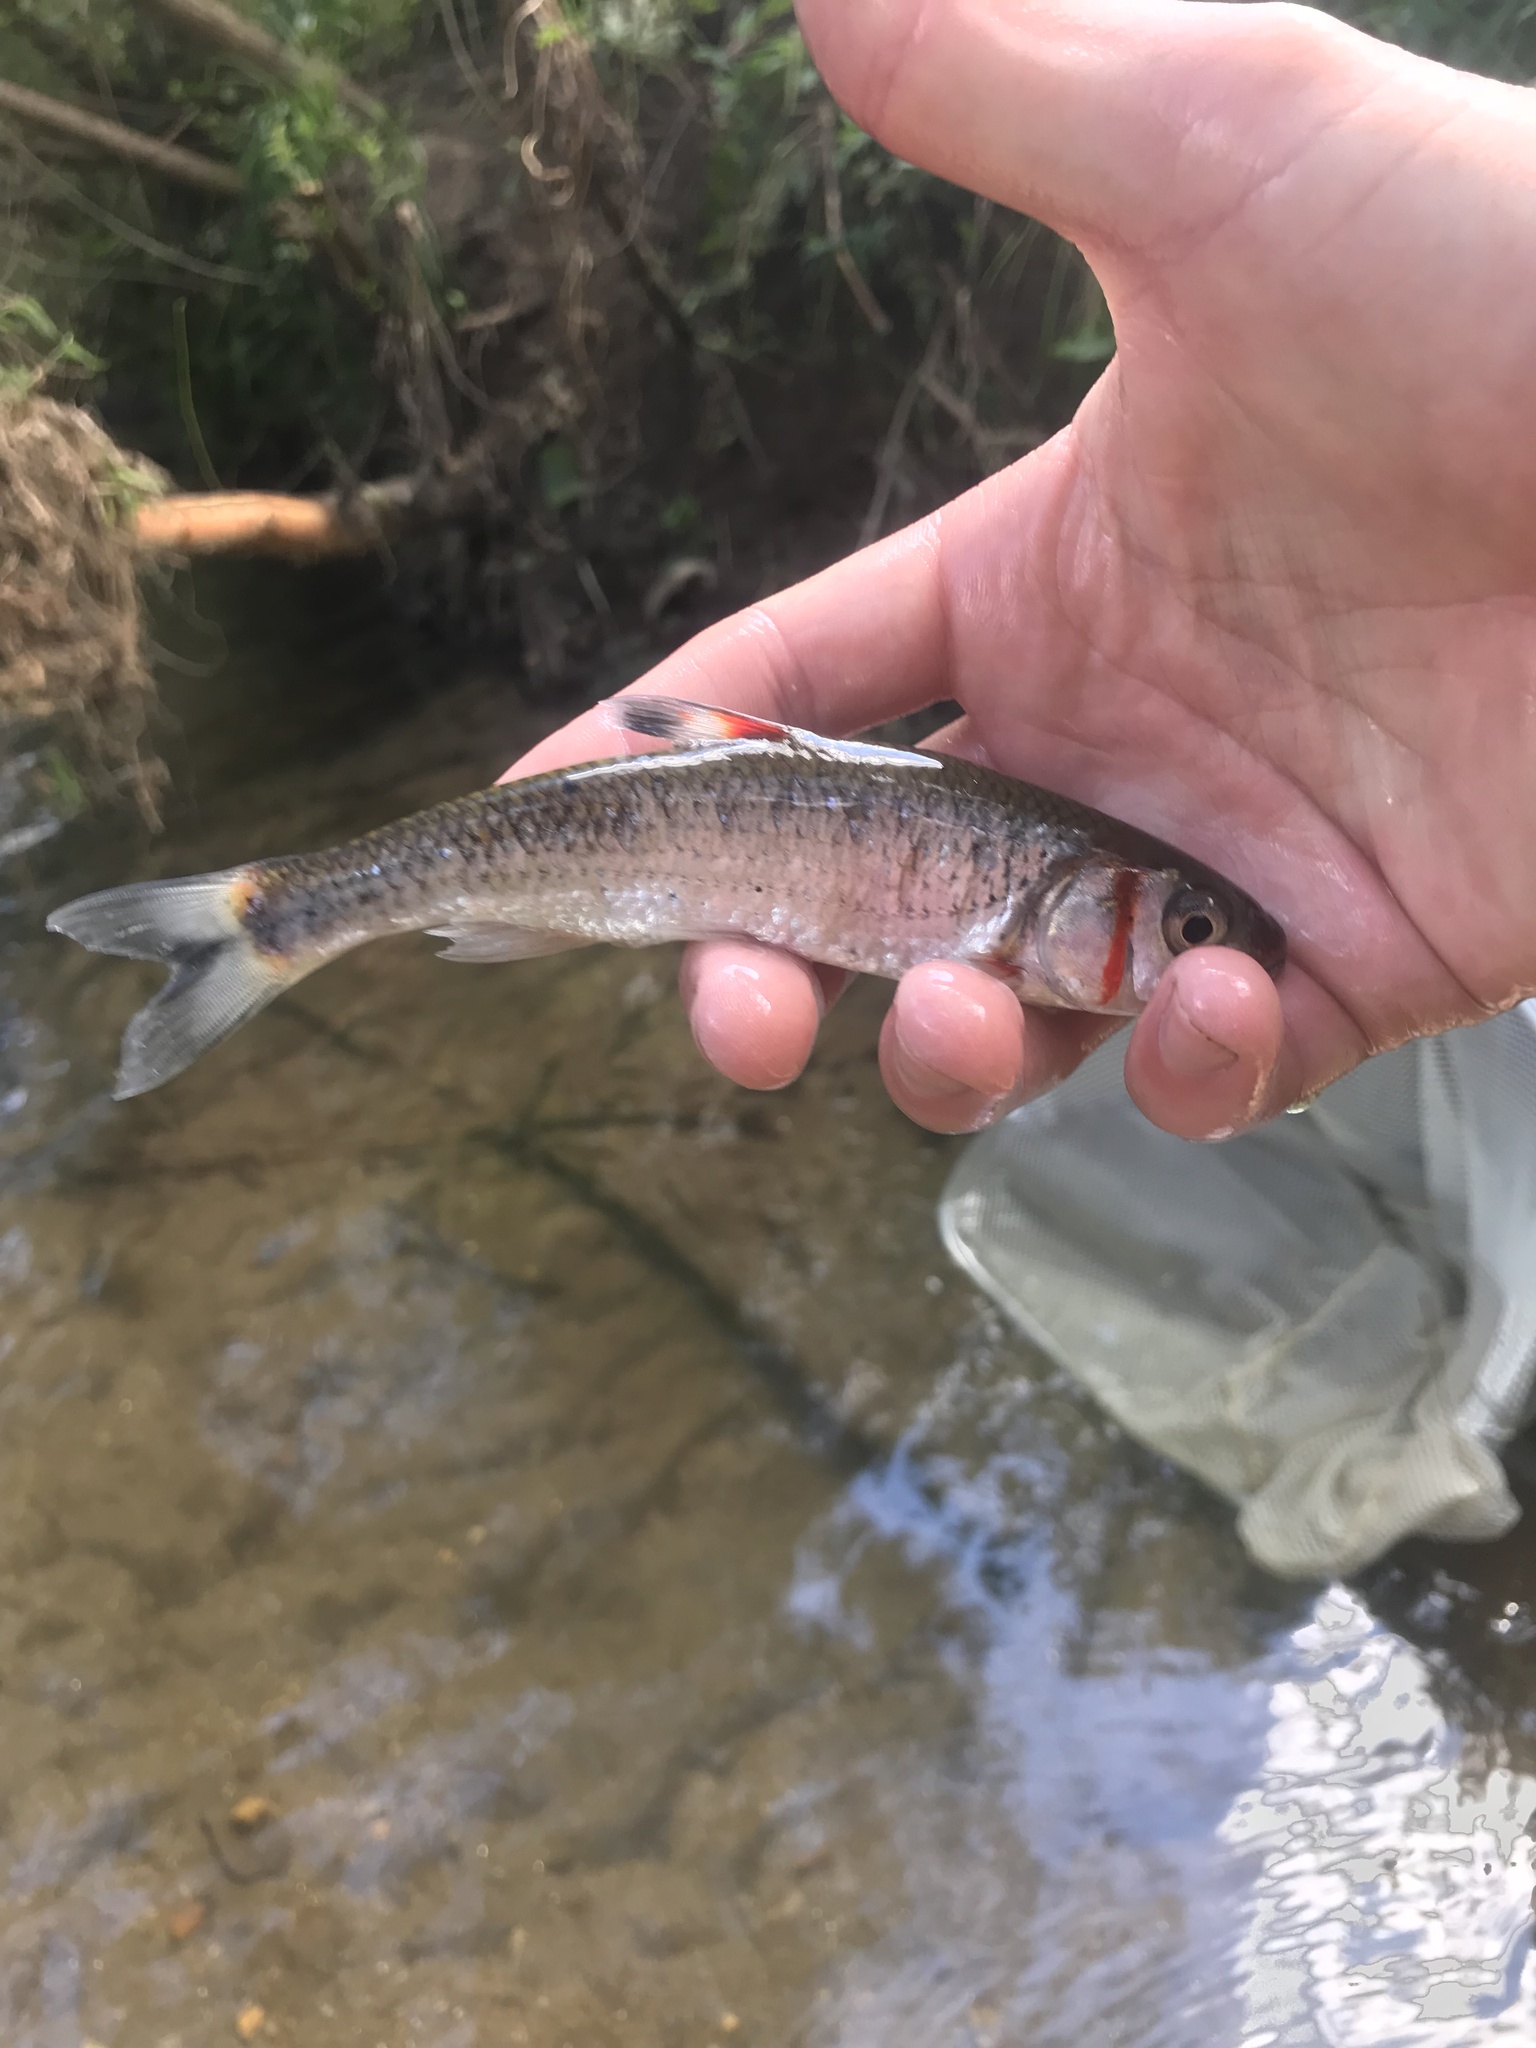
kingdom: Animalia
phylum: Chordata
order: Cypriniformes
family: Cyprinidae
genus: Luxilus
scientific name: Luxilus
